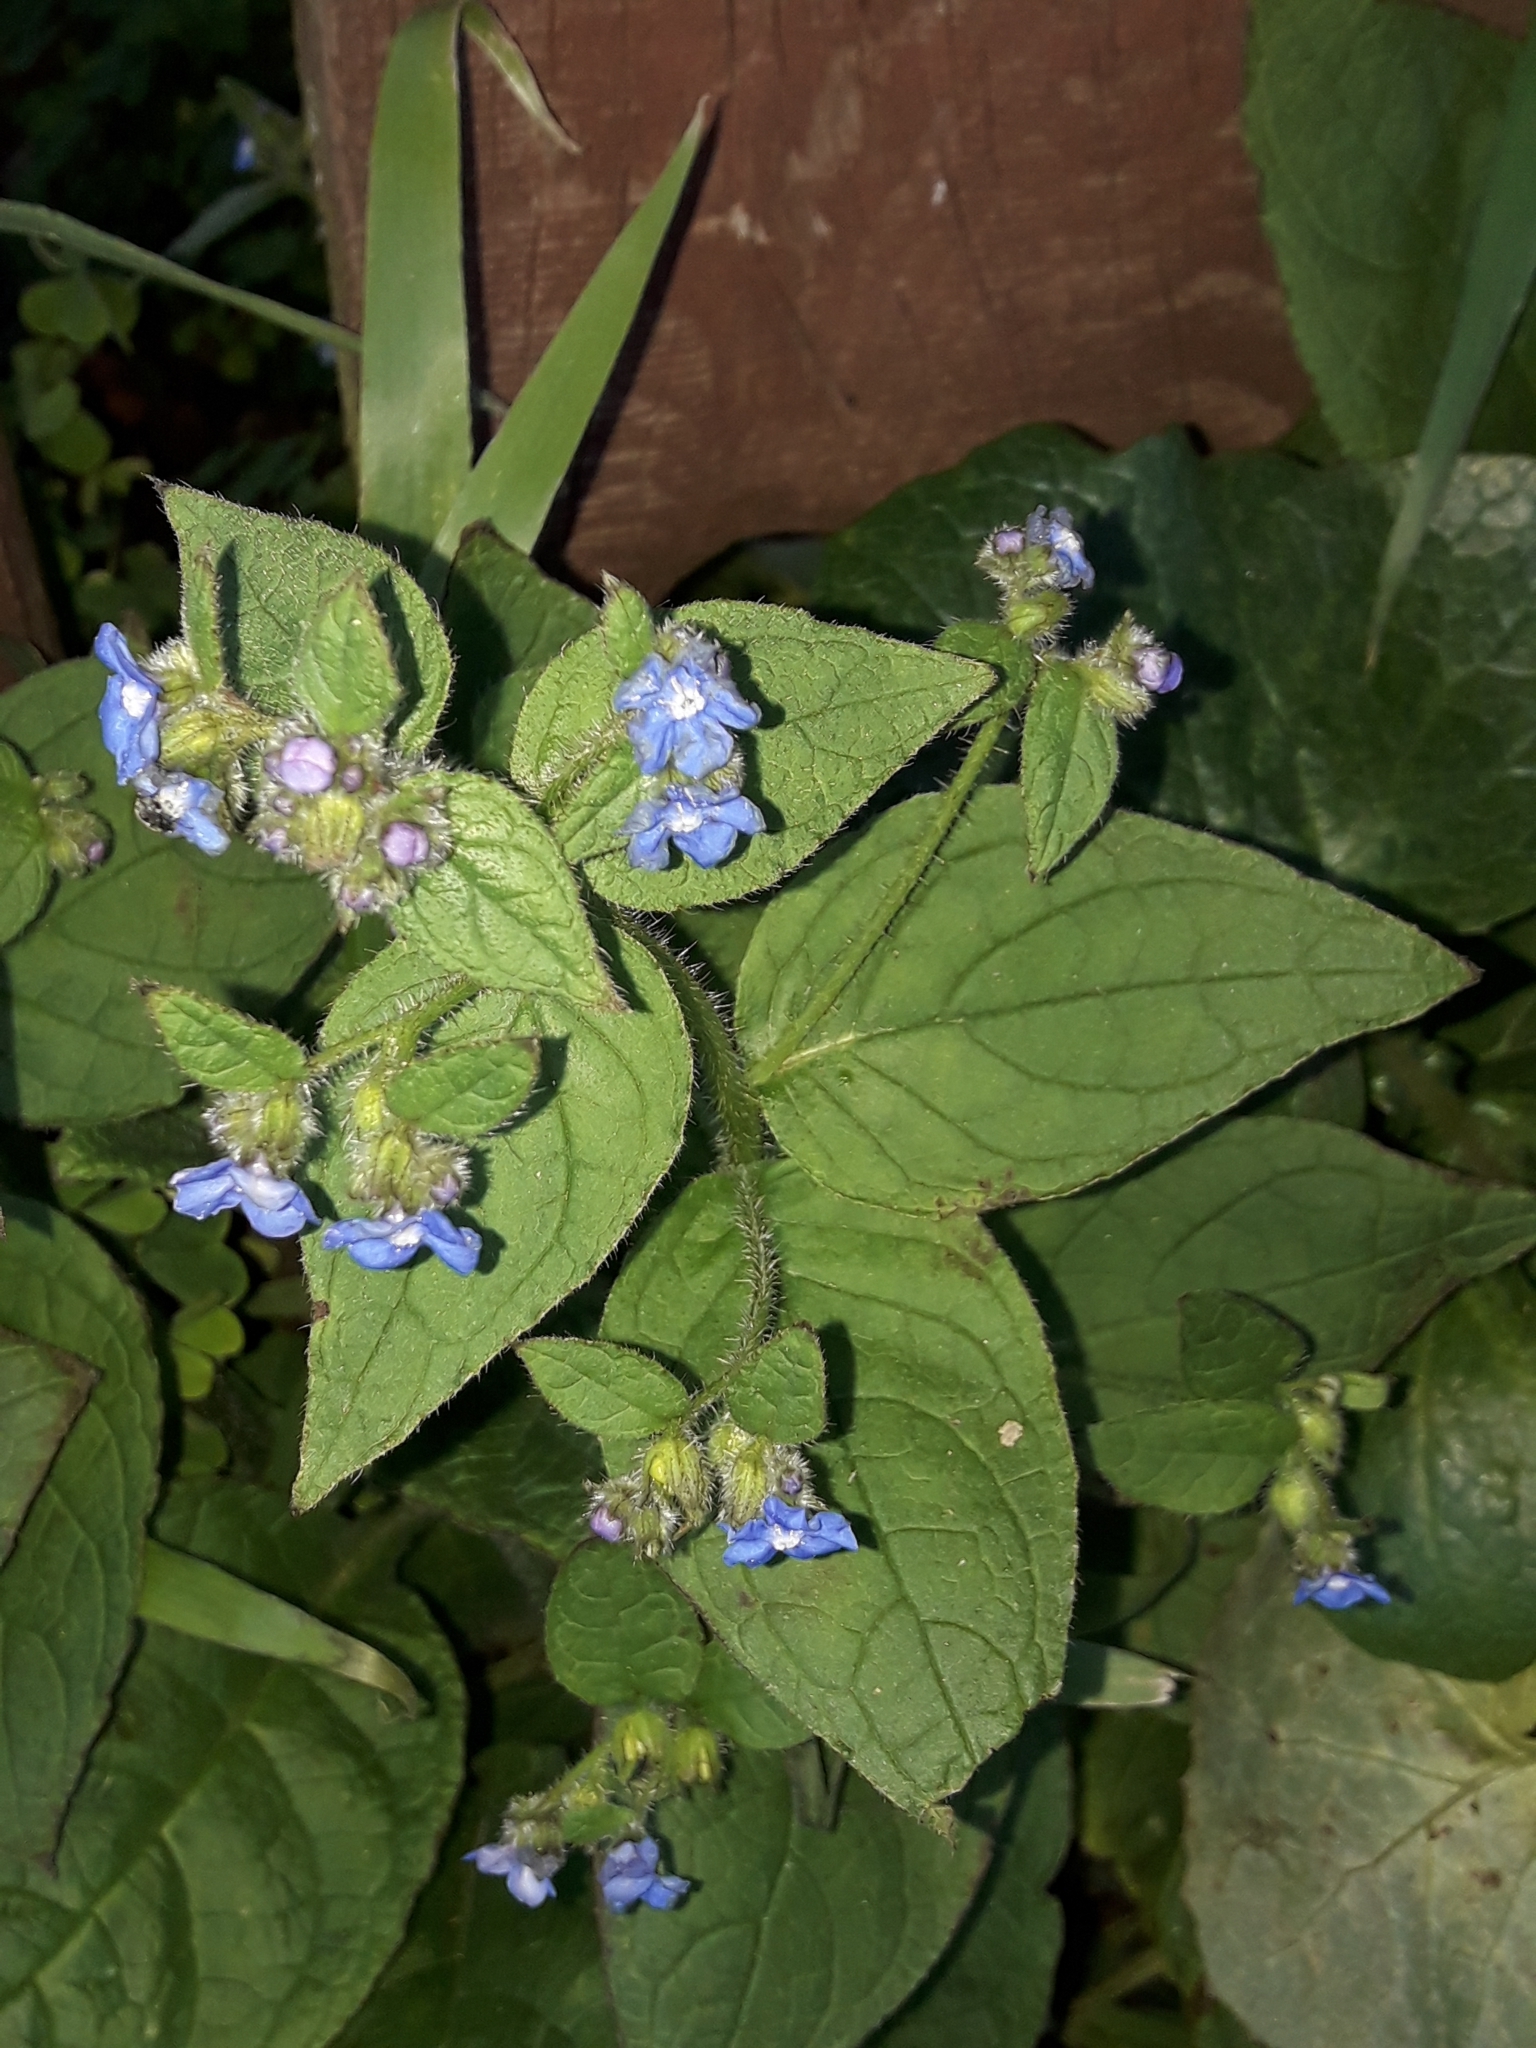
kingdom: Plantae
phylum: Tracheophyta
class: Magnoliopsida
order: Boraginales
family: Boraginaceae
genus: Pentaglottis
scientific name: Pentaglottis sempervirens
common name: Green alkanet
